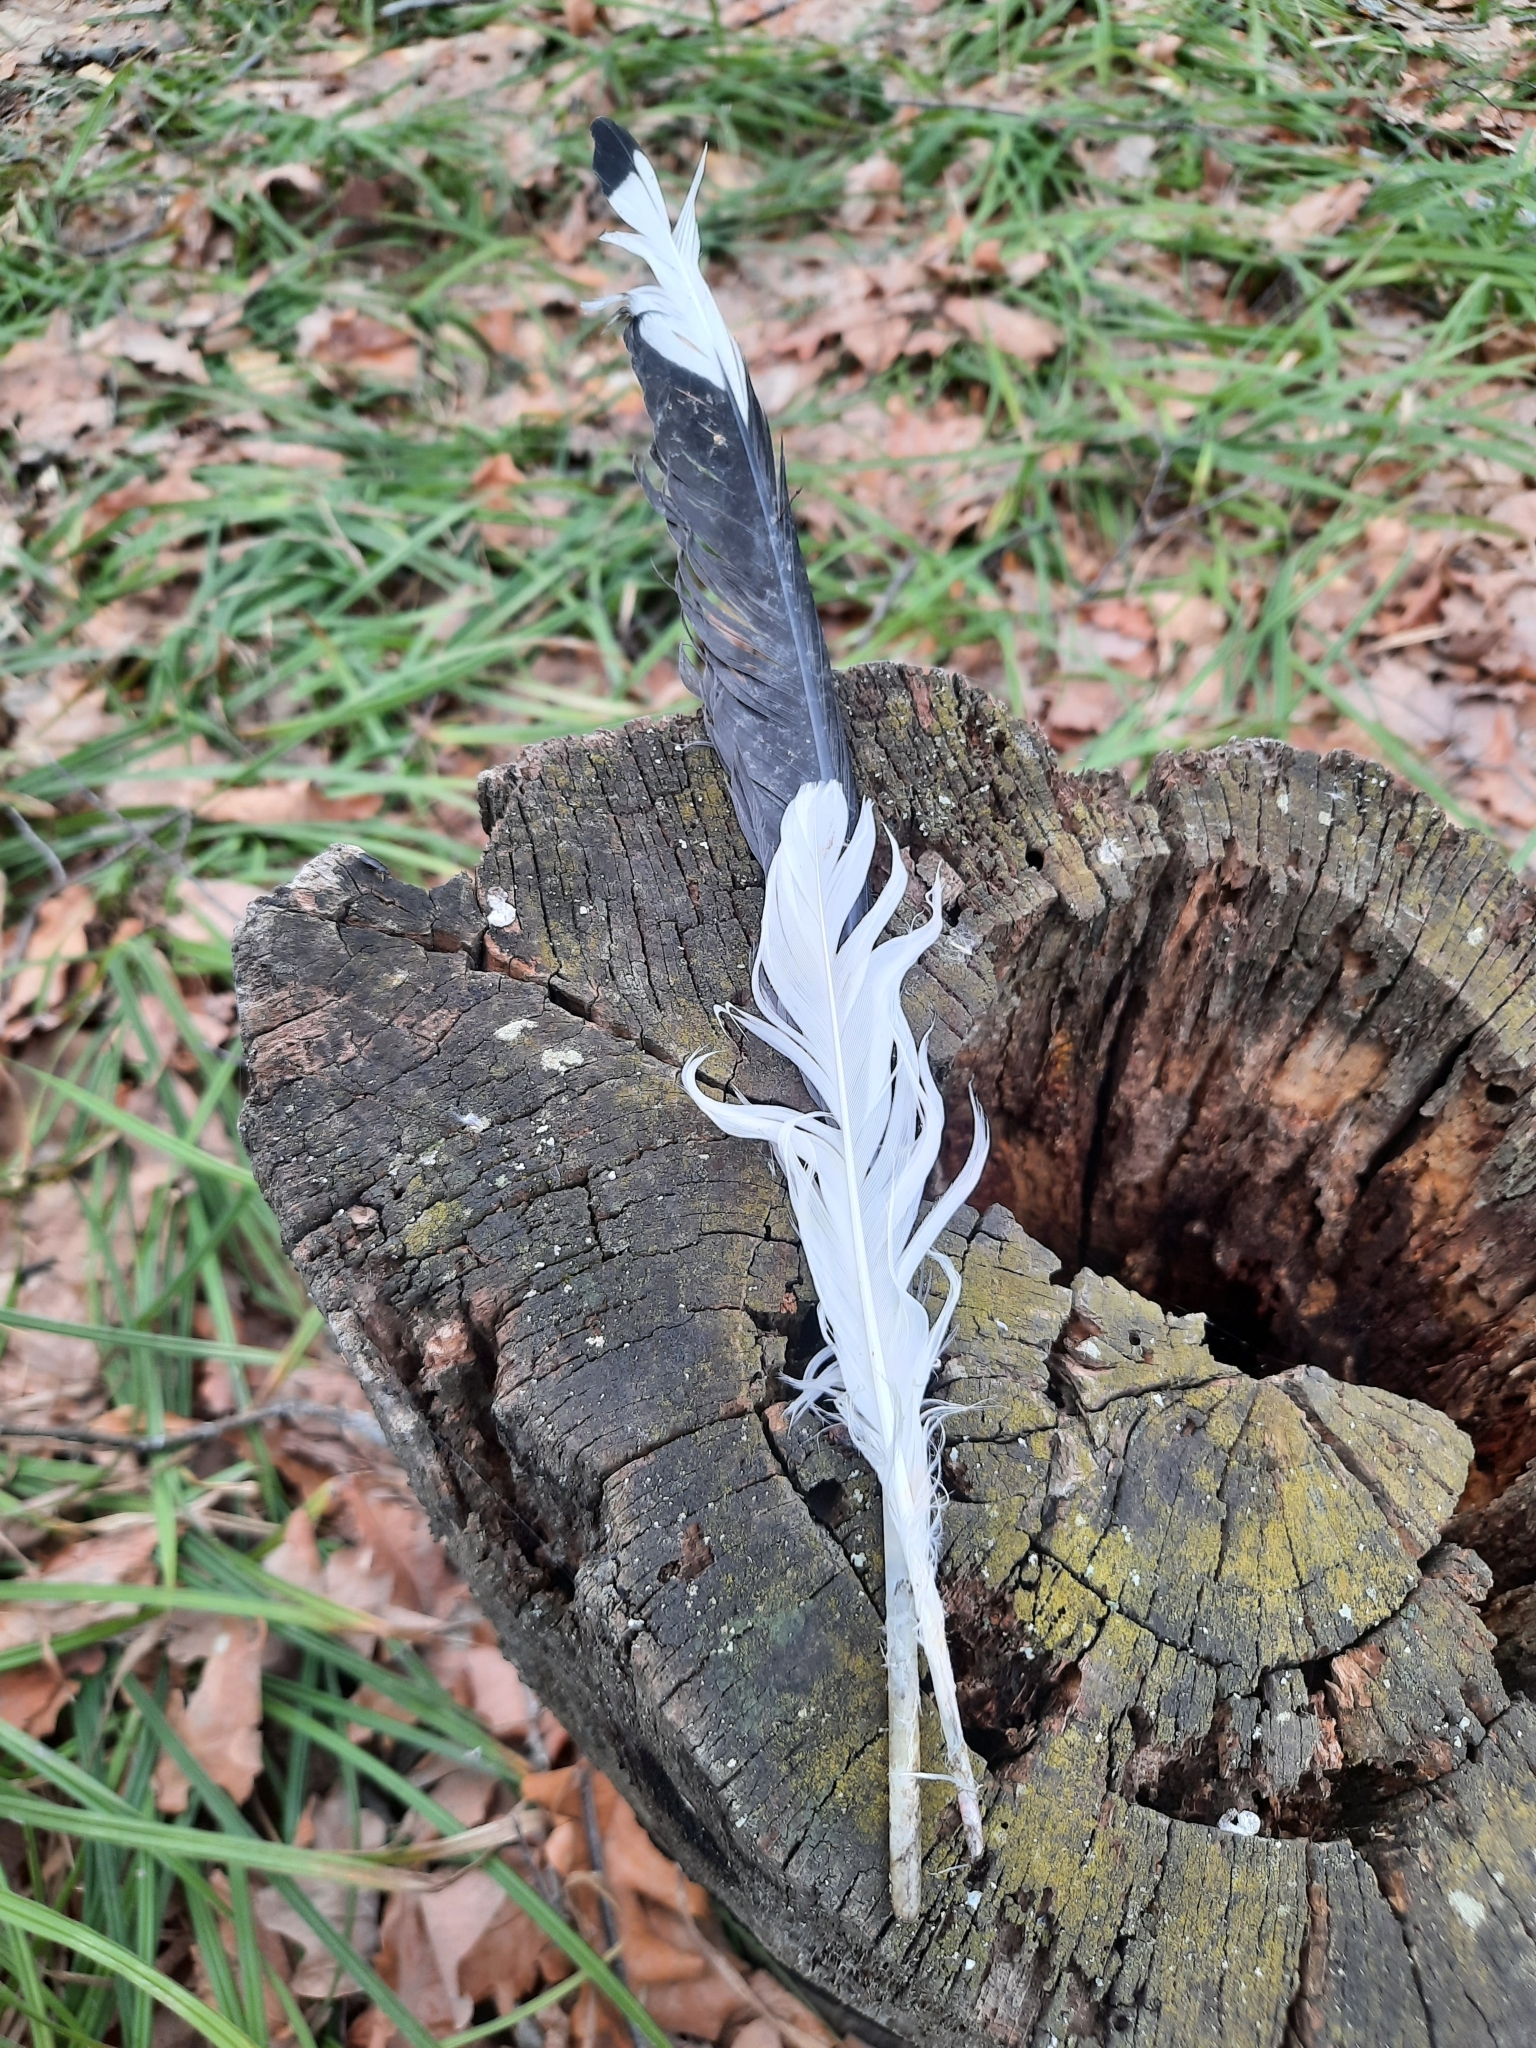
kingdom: Animalia
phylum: Chordata
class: Aves
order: Charadriiformes
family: Laridae
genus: Larus
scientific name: Larus canus
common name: Mew gull
